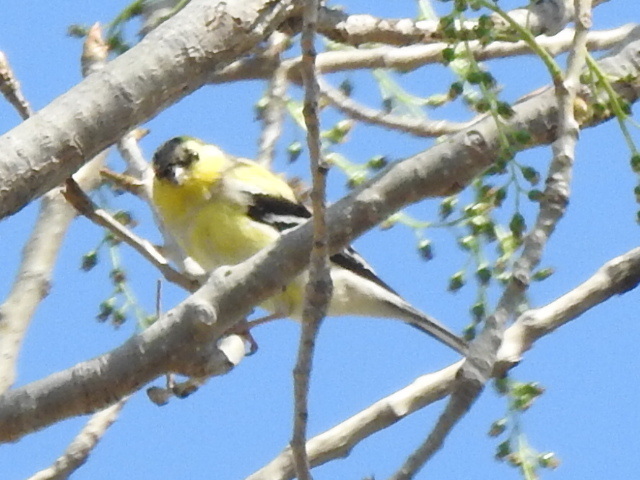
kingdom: Animalia
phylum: Chordata
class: Aves
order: Passeriformes
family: Fringillidae
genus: Spinus
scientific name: Spinus tristis
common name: American goldfinch
